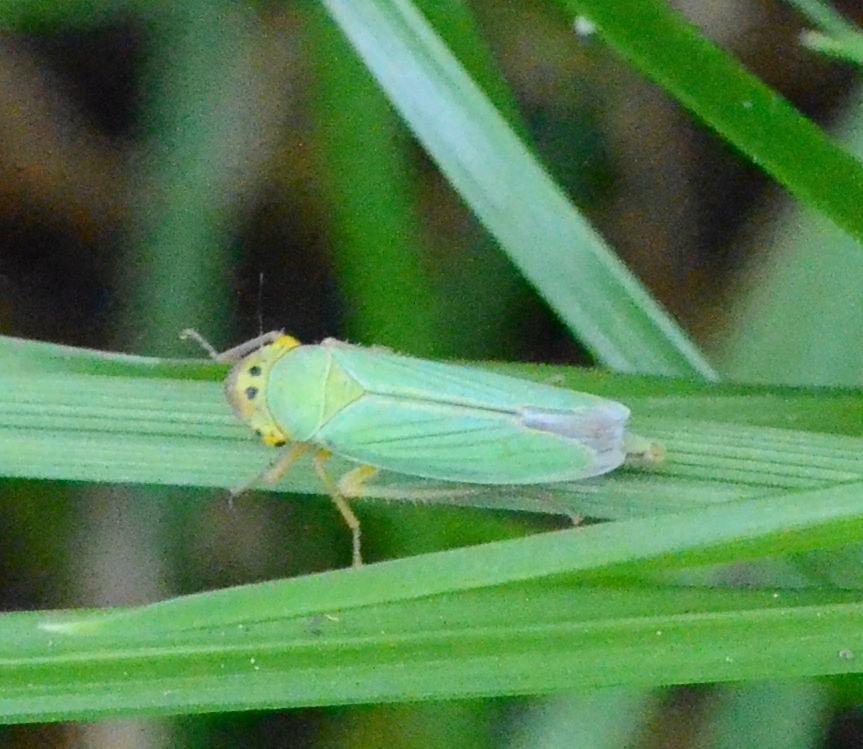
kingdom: Animalia
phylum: Arthropoda
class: Insecta
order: Hemiptera
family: Cicadellidae
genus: Cicadella
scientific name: Cicadella viridis
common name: Leafhopper
